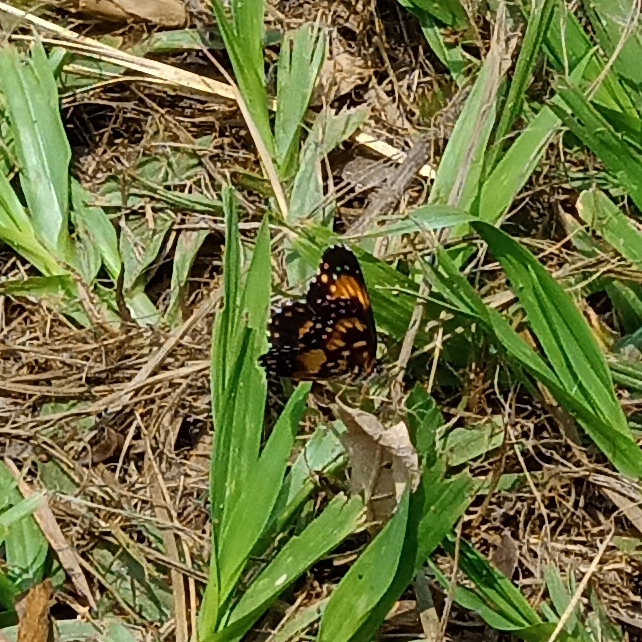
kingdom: Animalia
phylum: Arthropoda
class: Insecta
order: Lepidoptera
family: Nymphalidae
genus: Chlosyne
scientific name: Chlosyne lacinia
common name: Bordered patch
